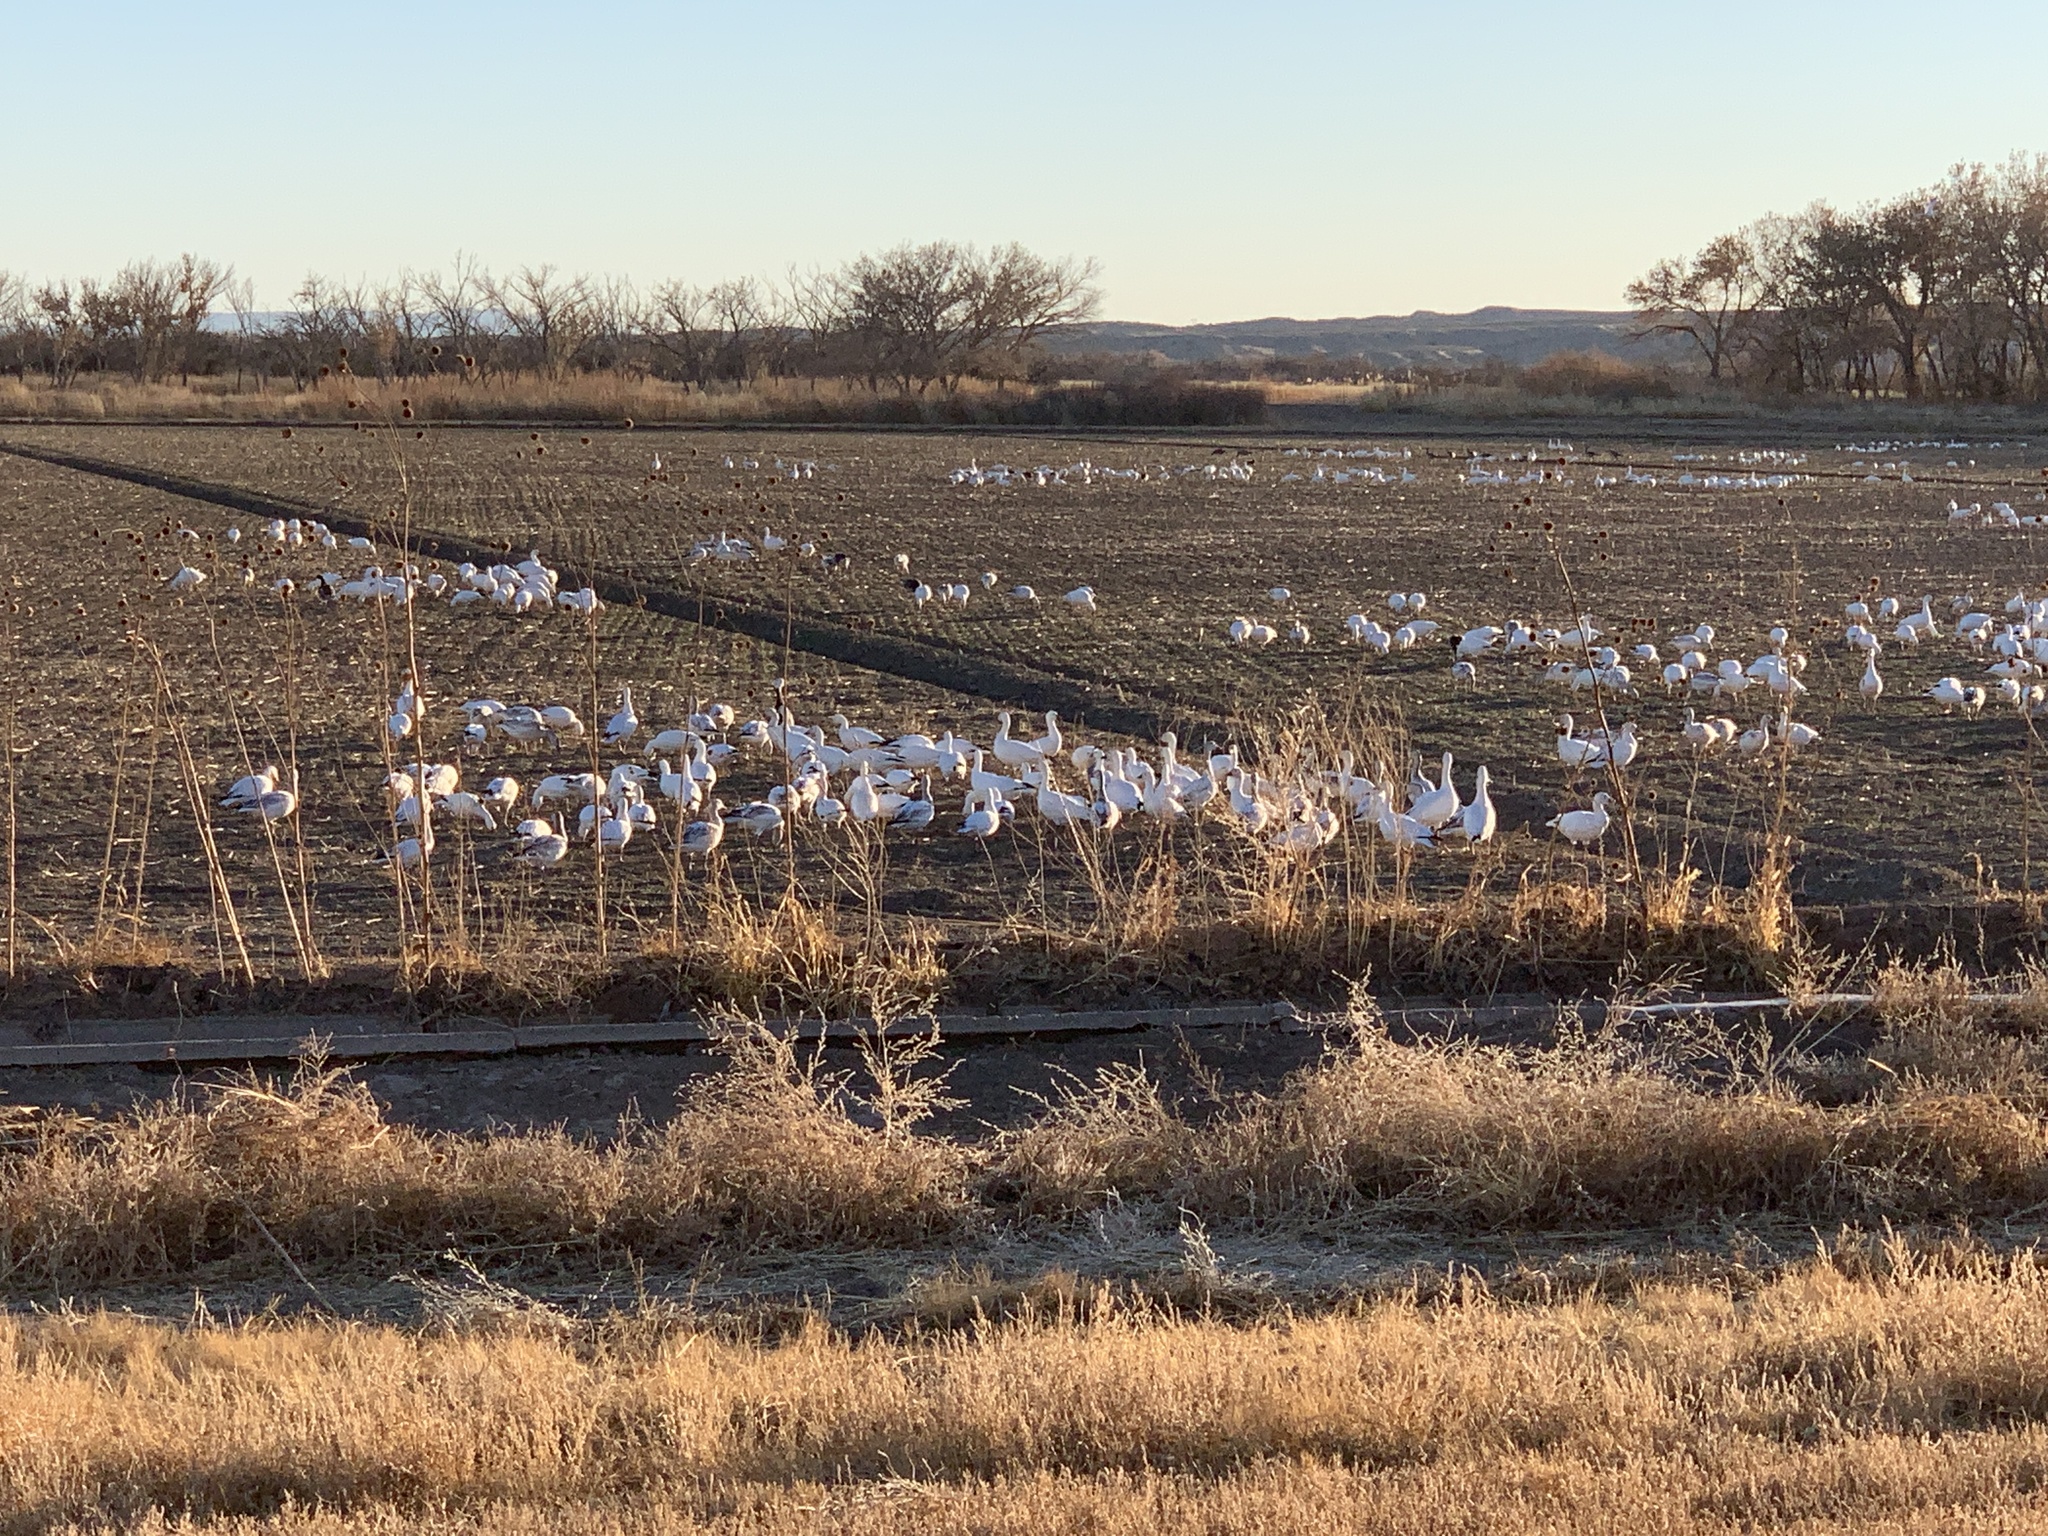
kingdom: Animalia
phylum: Chordata
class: Aves
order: Anseriformes
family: Anatidae
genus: Anser
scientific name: Anser caerulescens
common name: Snow goose
